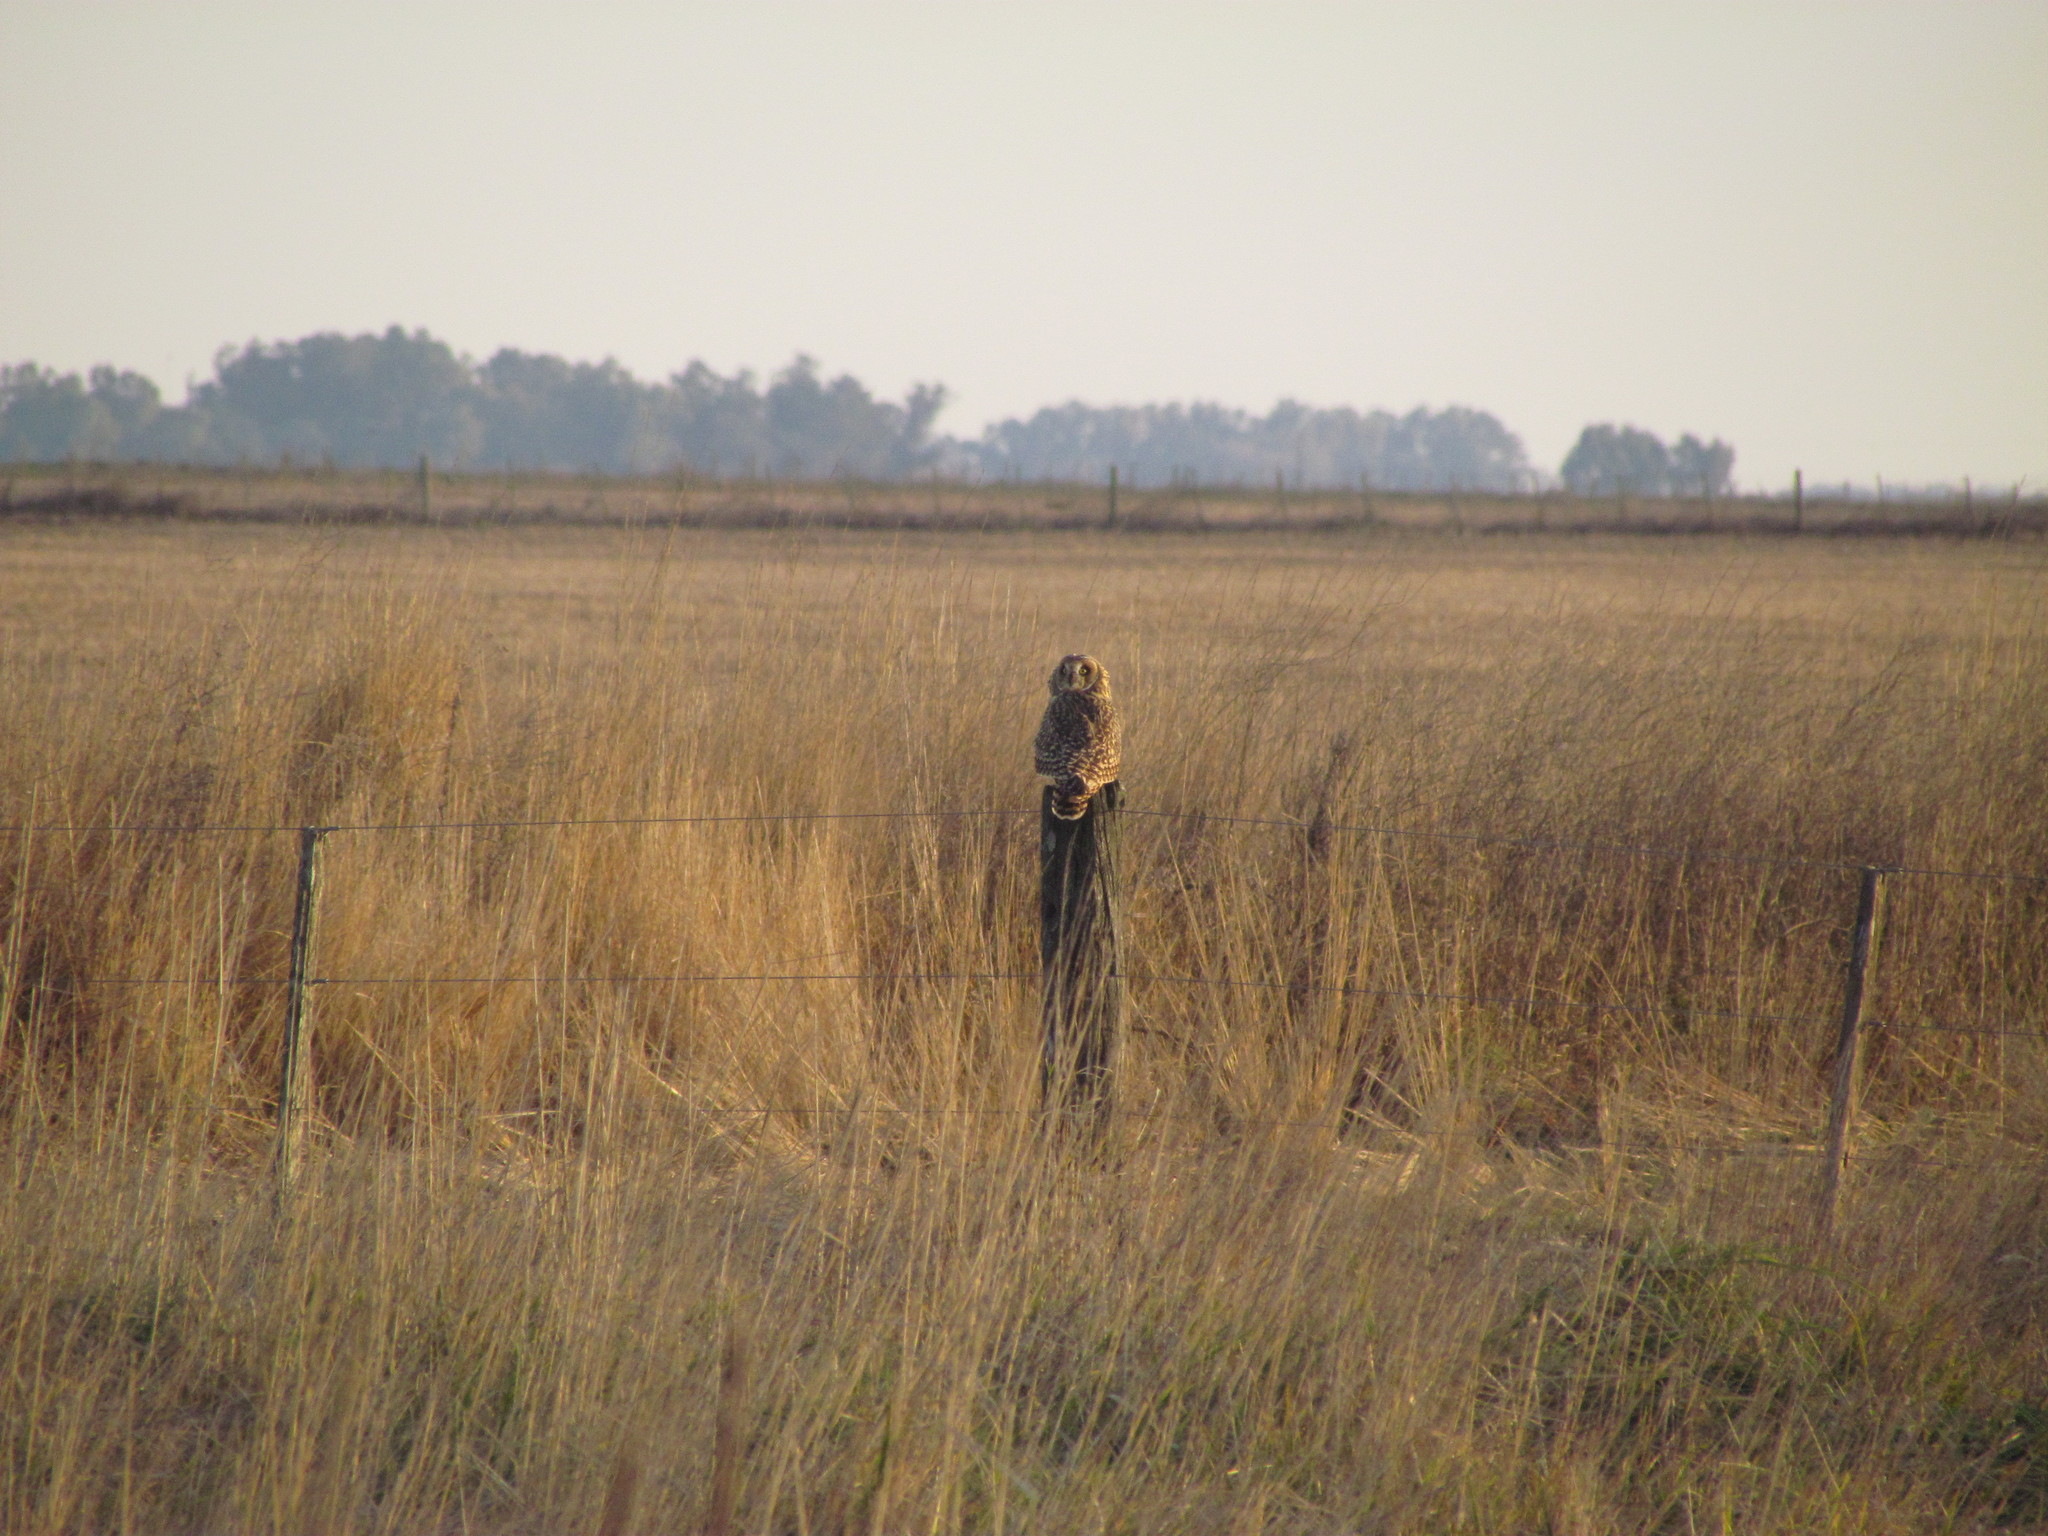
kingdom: Animalia
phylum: Chordata
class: Aves
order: Strigiformes
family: Strigidae
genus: Asio
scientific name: Asio flammeus
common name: Short-eared owl
